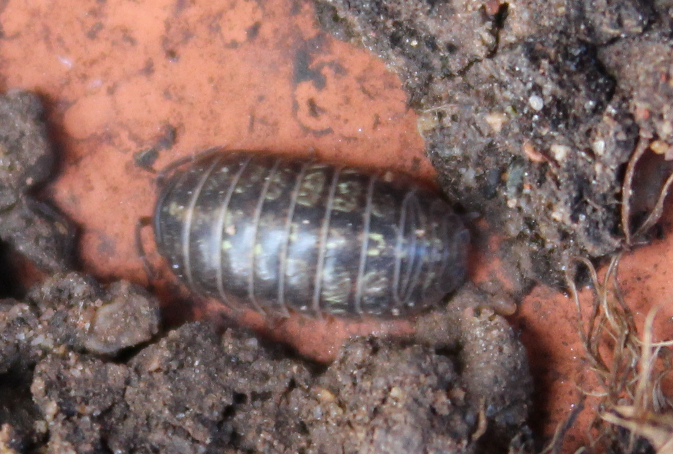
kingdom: Animalia
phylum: Arthropoda
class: Malacostraca
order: Isopoda
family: Armadillidiidae
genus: Armadillidium
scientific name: Armadillidium vulgare
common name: Common pill woodlouse
